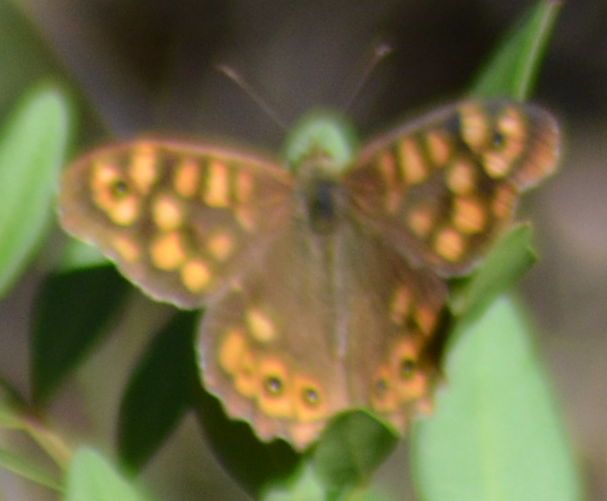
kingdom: Animalia
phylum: Arthropoda
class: Insecta
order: Lepidoptera
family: Nymphalidae
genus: Pararge
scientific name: Pararge aegeria
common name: Speckled wood
